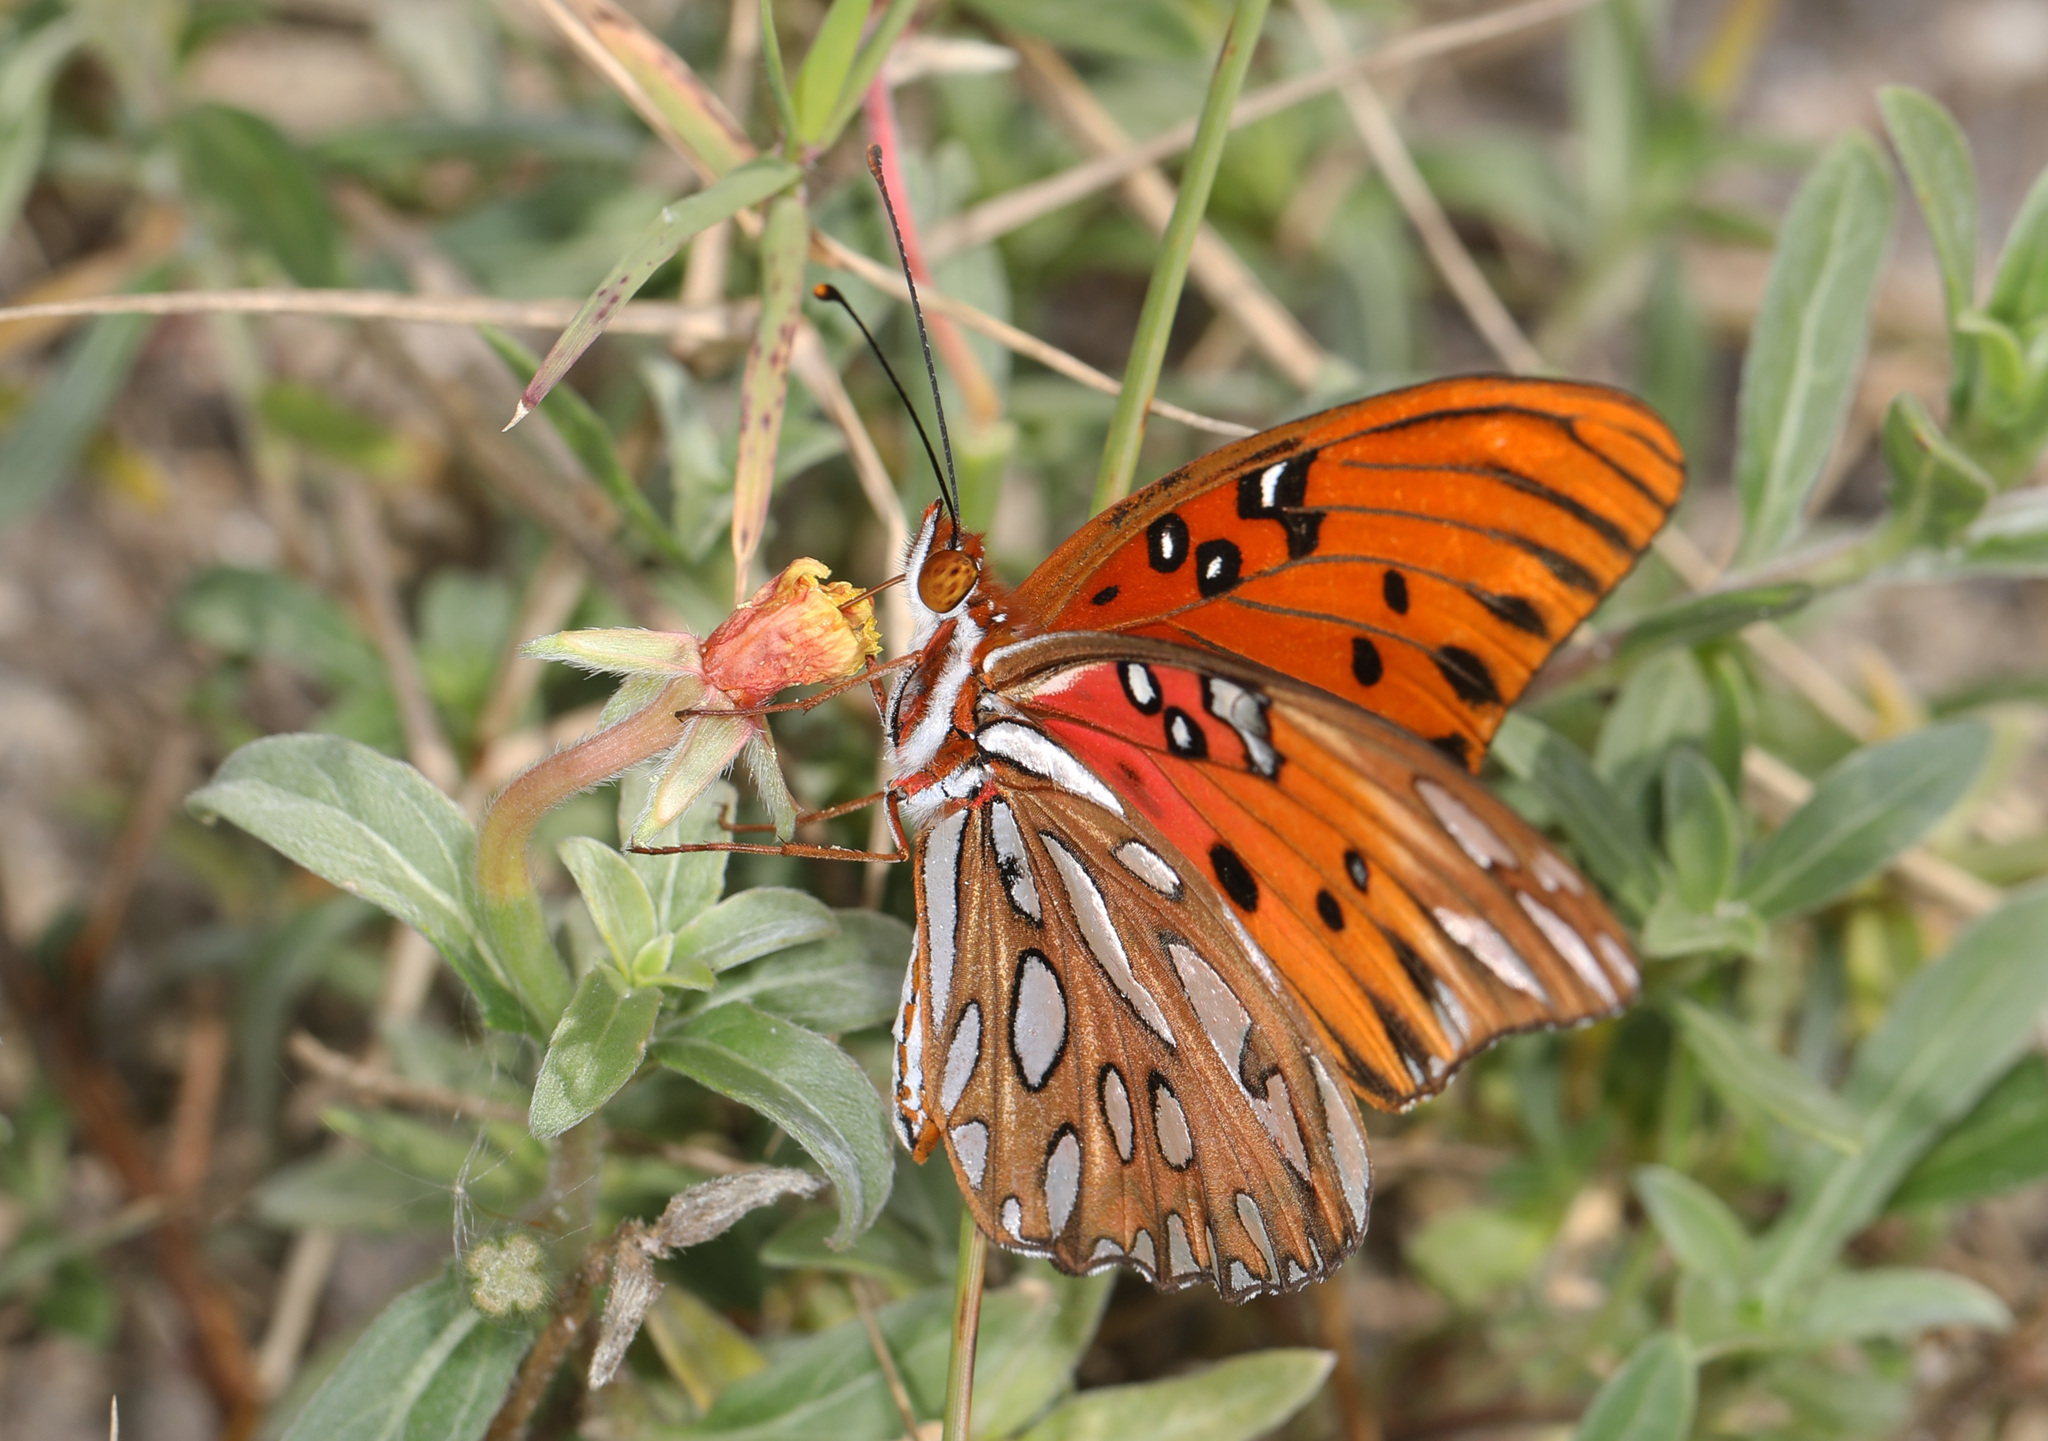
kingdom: Animalia
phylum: Arthropoda
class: Insecta
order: Lepidoptera
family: Nymphalidae
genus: Dione
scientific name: Dione vanillae
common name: Gulf fritillary
